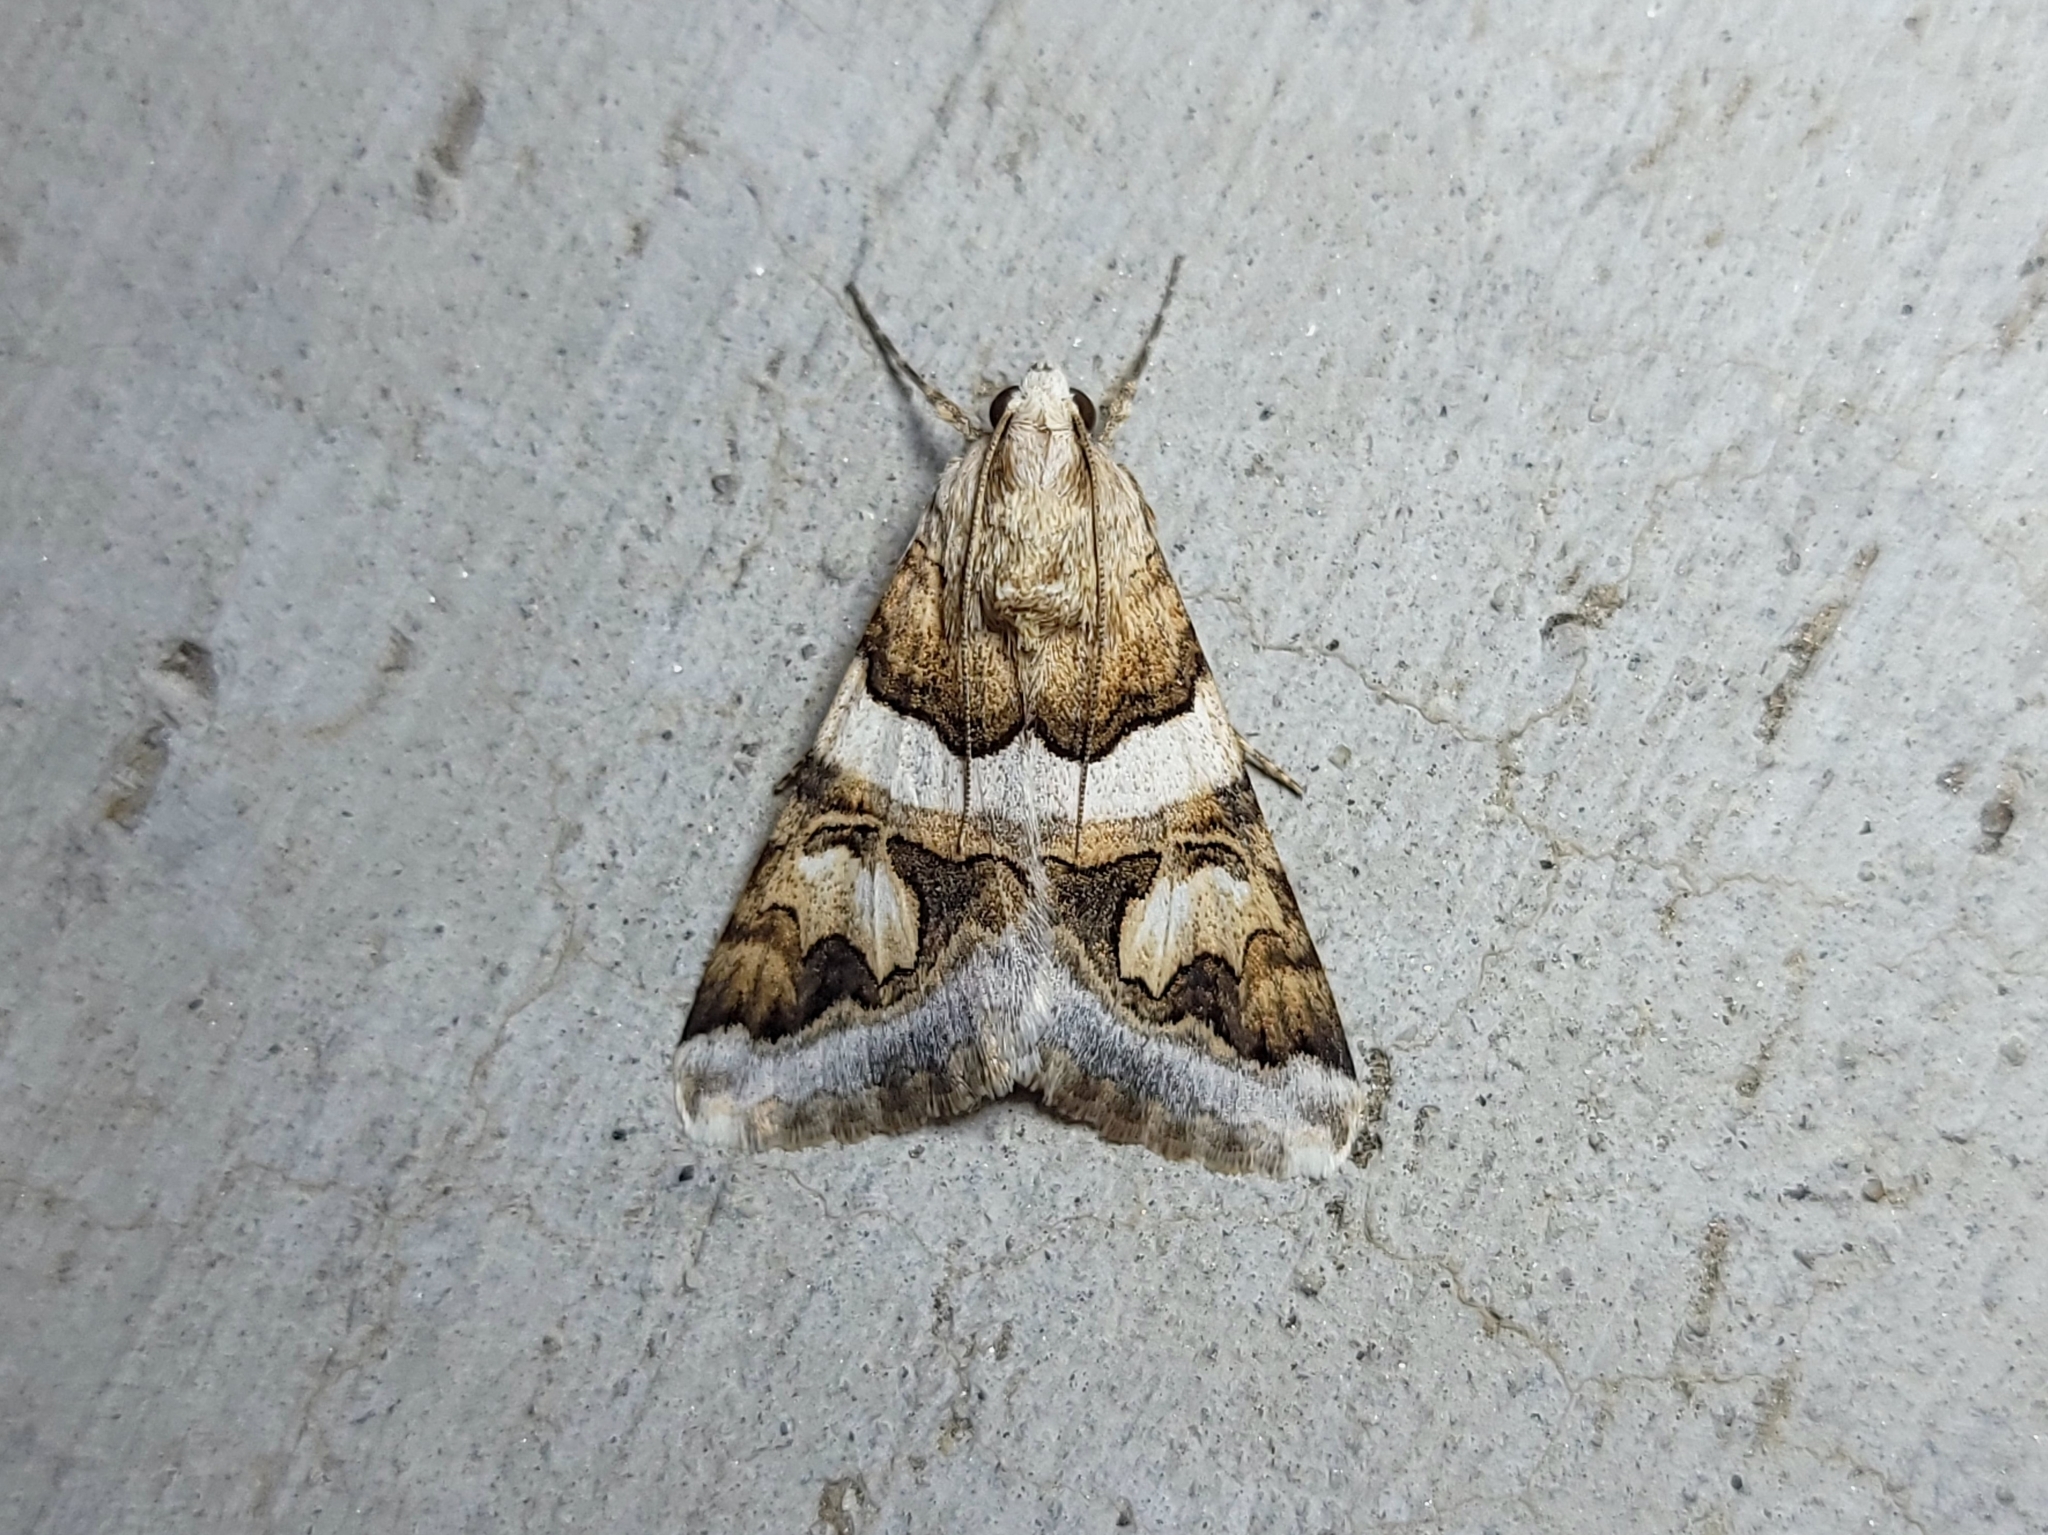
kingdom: Animalia
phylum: Arthropoda
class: Insecta
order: Lepidoptera
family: Erebidae
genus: Drasteria
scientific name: Drasteria howlandii
